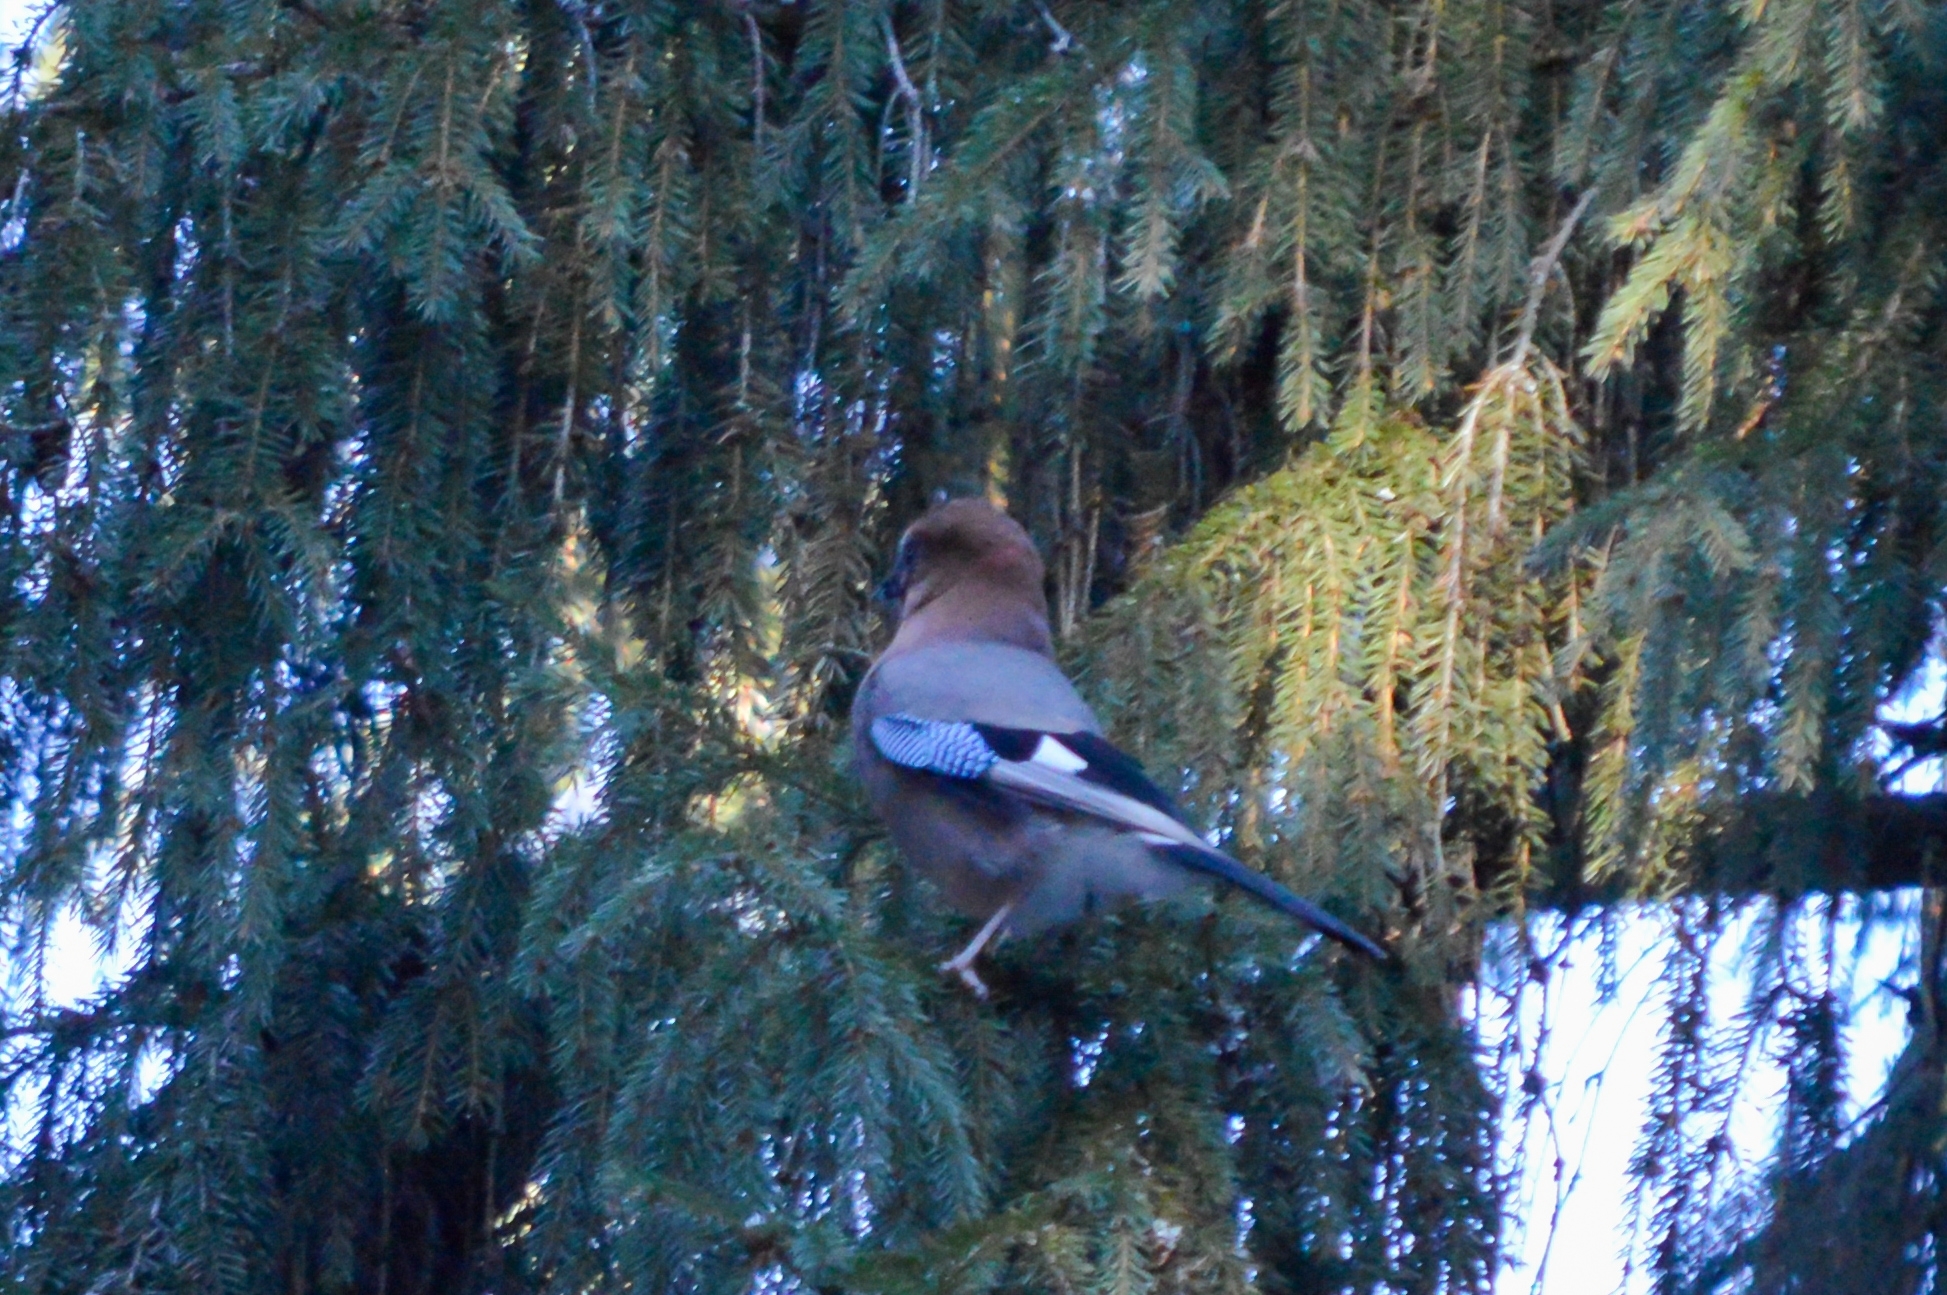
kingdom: Animalia
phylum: Chordata
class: Aves
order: Passeriformes
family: Corvidae
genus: Garrulus
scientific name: Garrulus glandarius
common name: Eurasian jay
